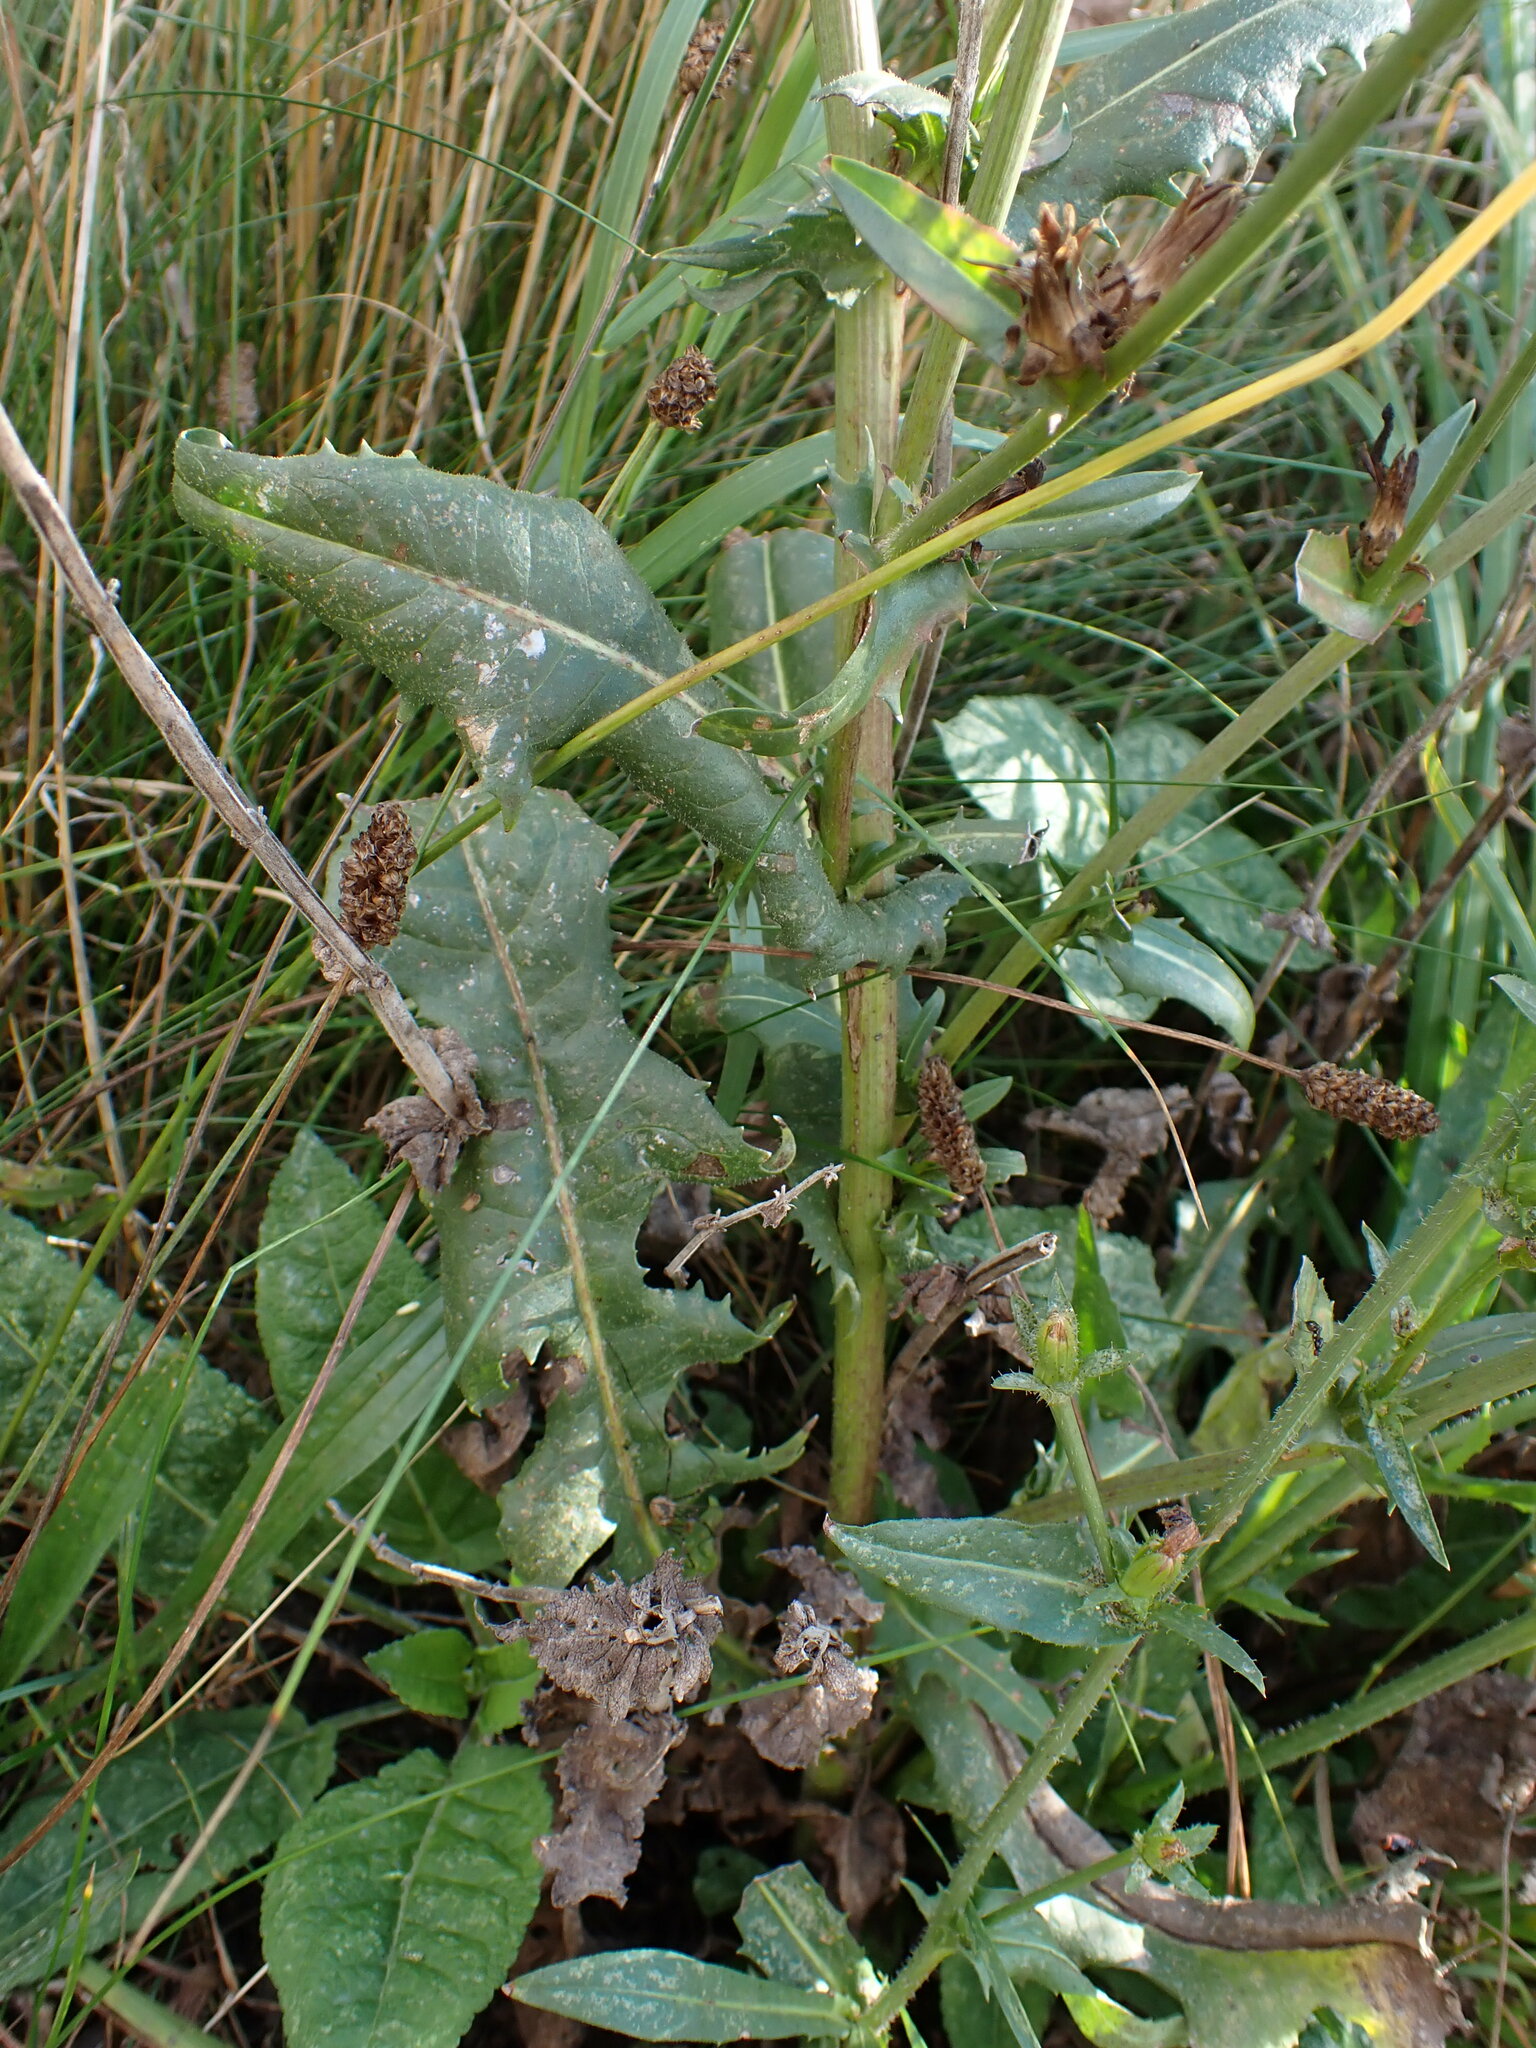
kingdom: Plantae
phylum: Tracheophyta
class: Magnoliopsida
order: Asterales
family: Asteraceae
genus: Cichorium
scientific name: Cichorium intybus
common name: Chicory
